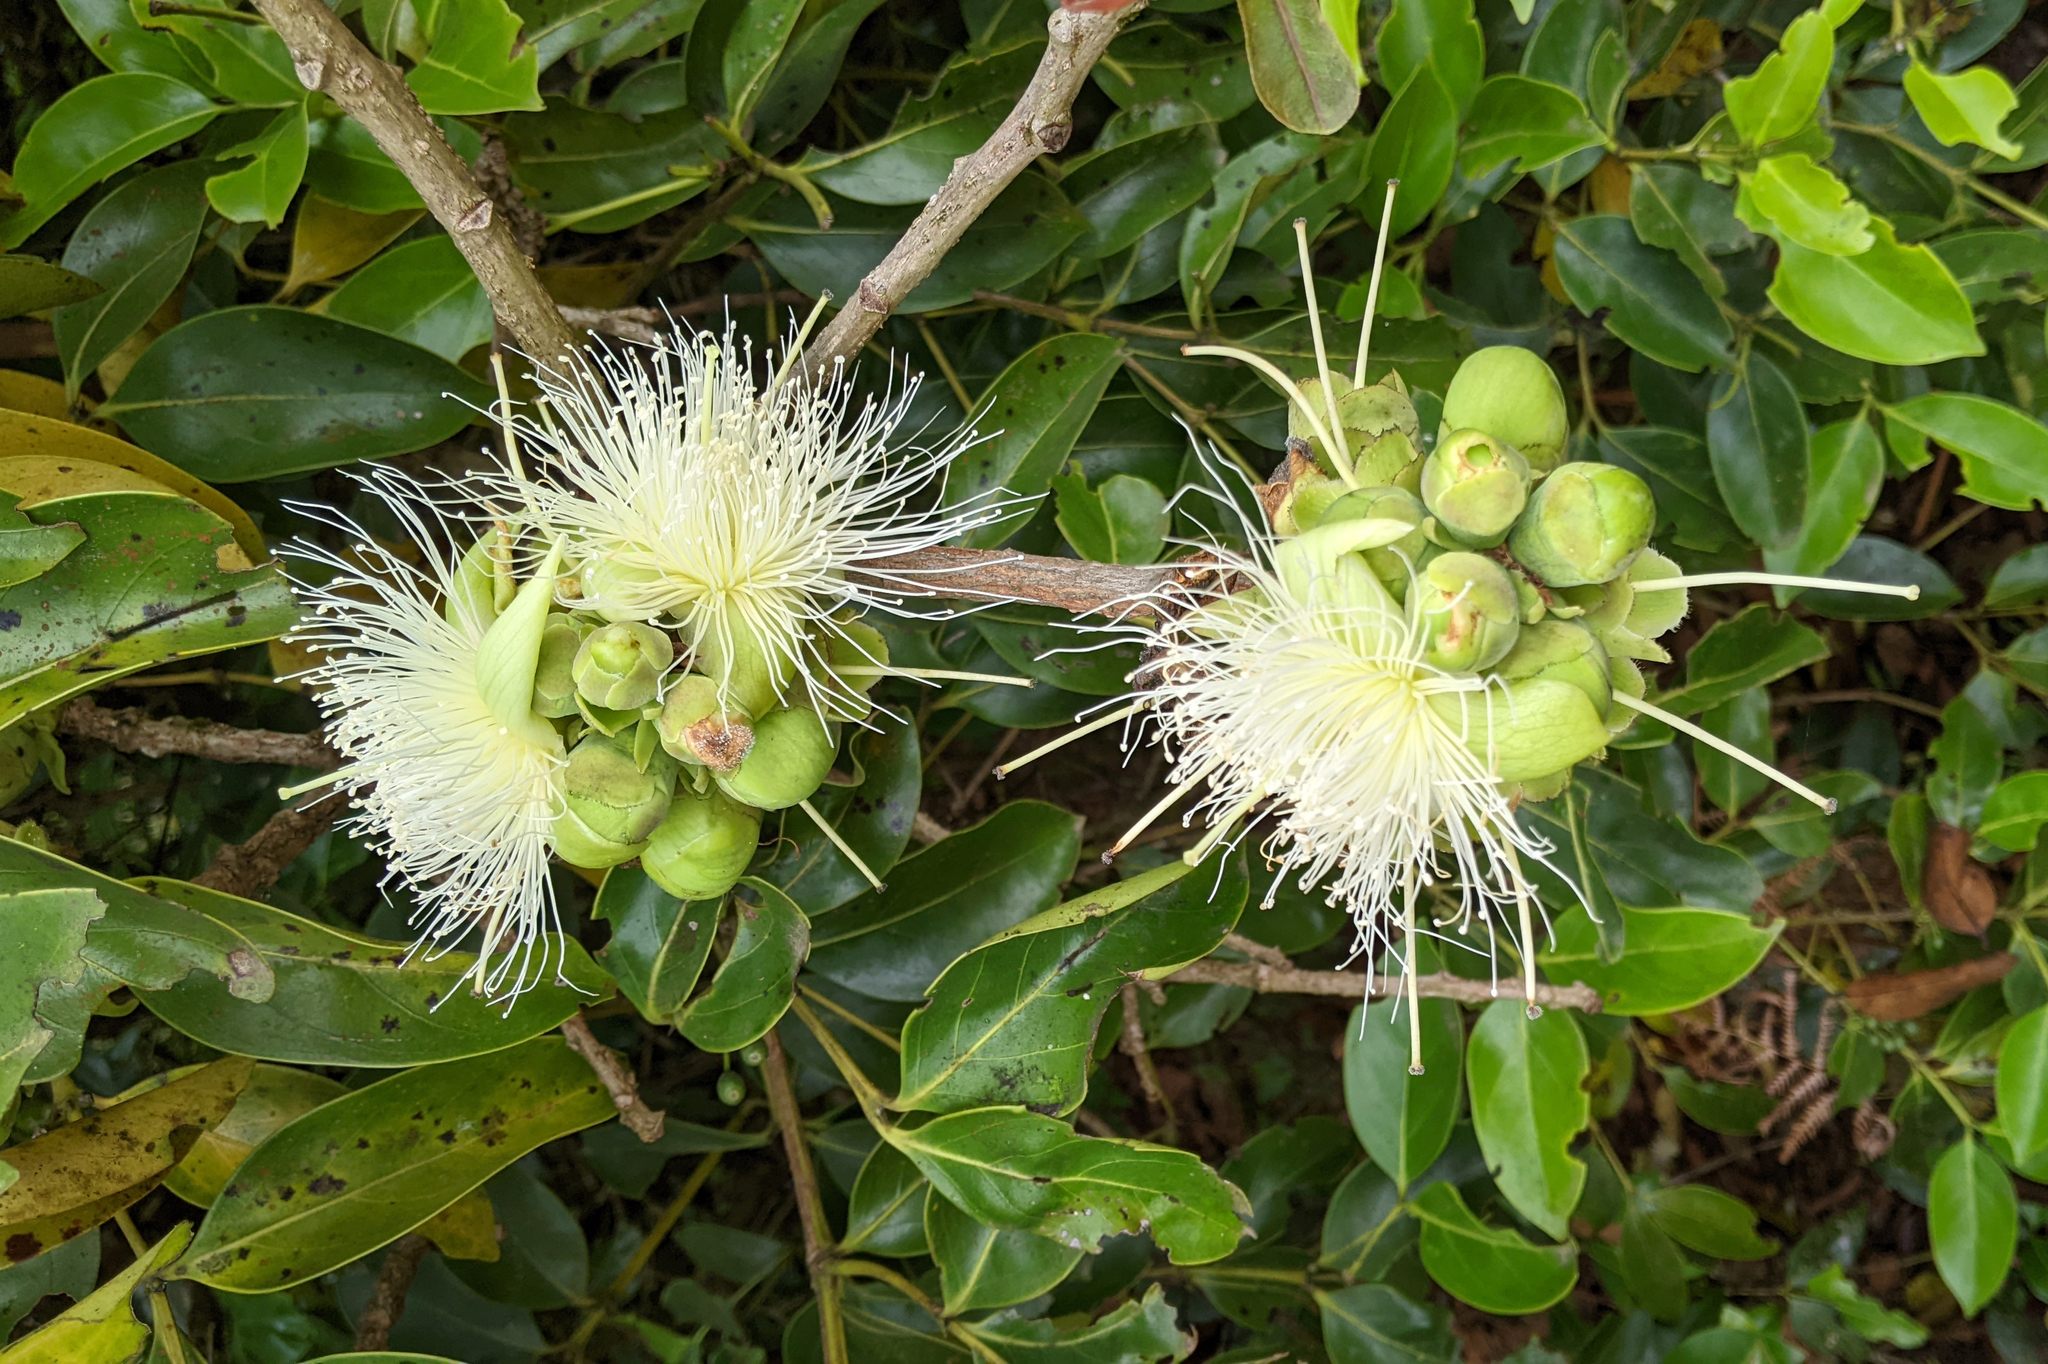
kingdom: Plantae
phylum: Tracheophyta
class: Magnoliopsida
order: Ericales
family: Lecythidaceae
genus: Careya
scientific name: Careya arborea
